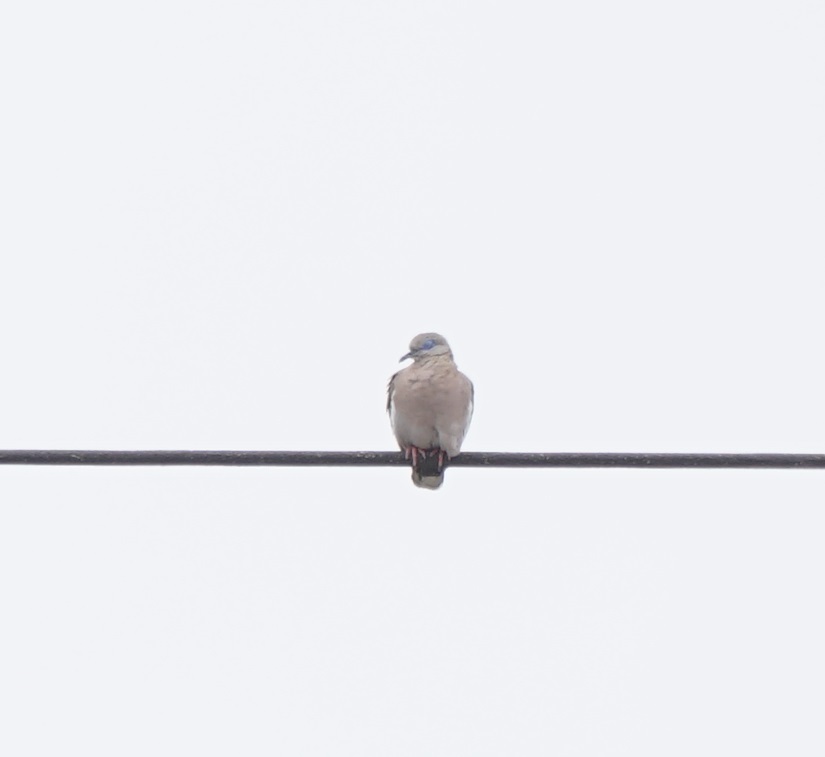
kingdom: Animalia
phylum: Chordata
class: Aves
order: Columbiformes
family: Columbidae
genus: Zenaida
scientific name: Zenaida meloda
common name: West peruvian dove
